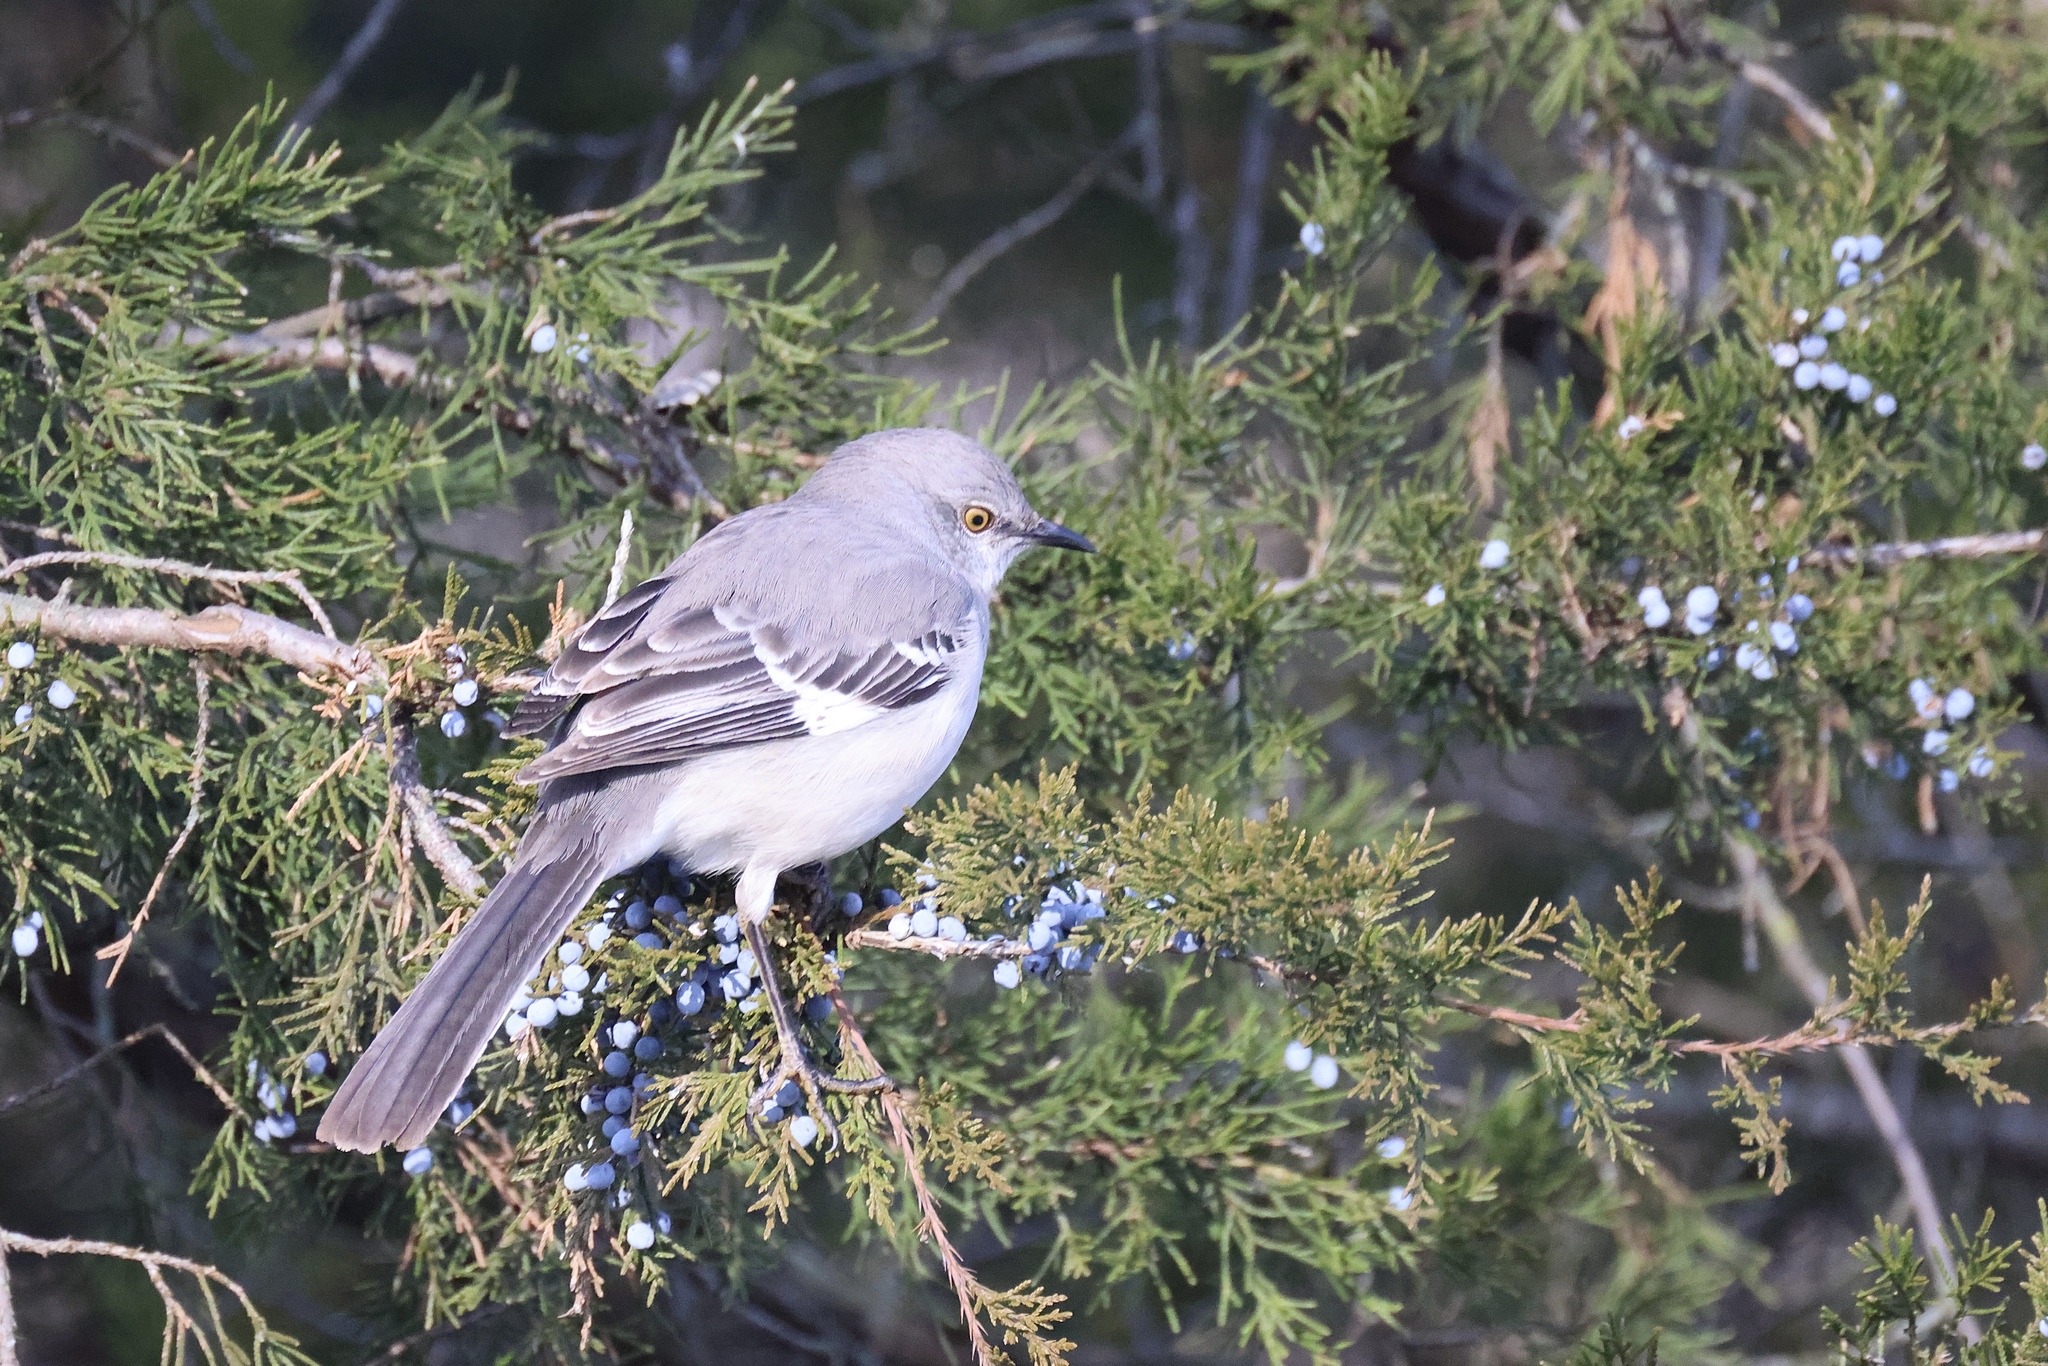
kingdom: Animalia
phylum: Chordata
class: Aves
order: Passeriformes
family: Mimidae
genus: Mimus
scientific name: Mimus polyglottos
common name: Northern mockingbird
